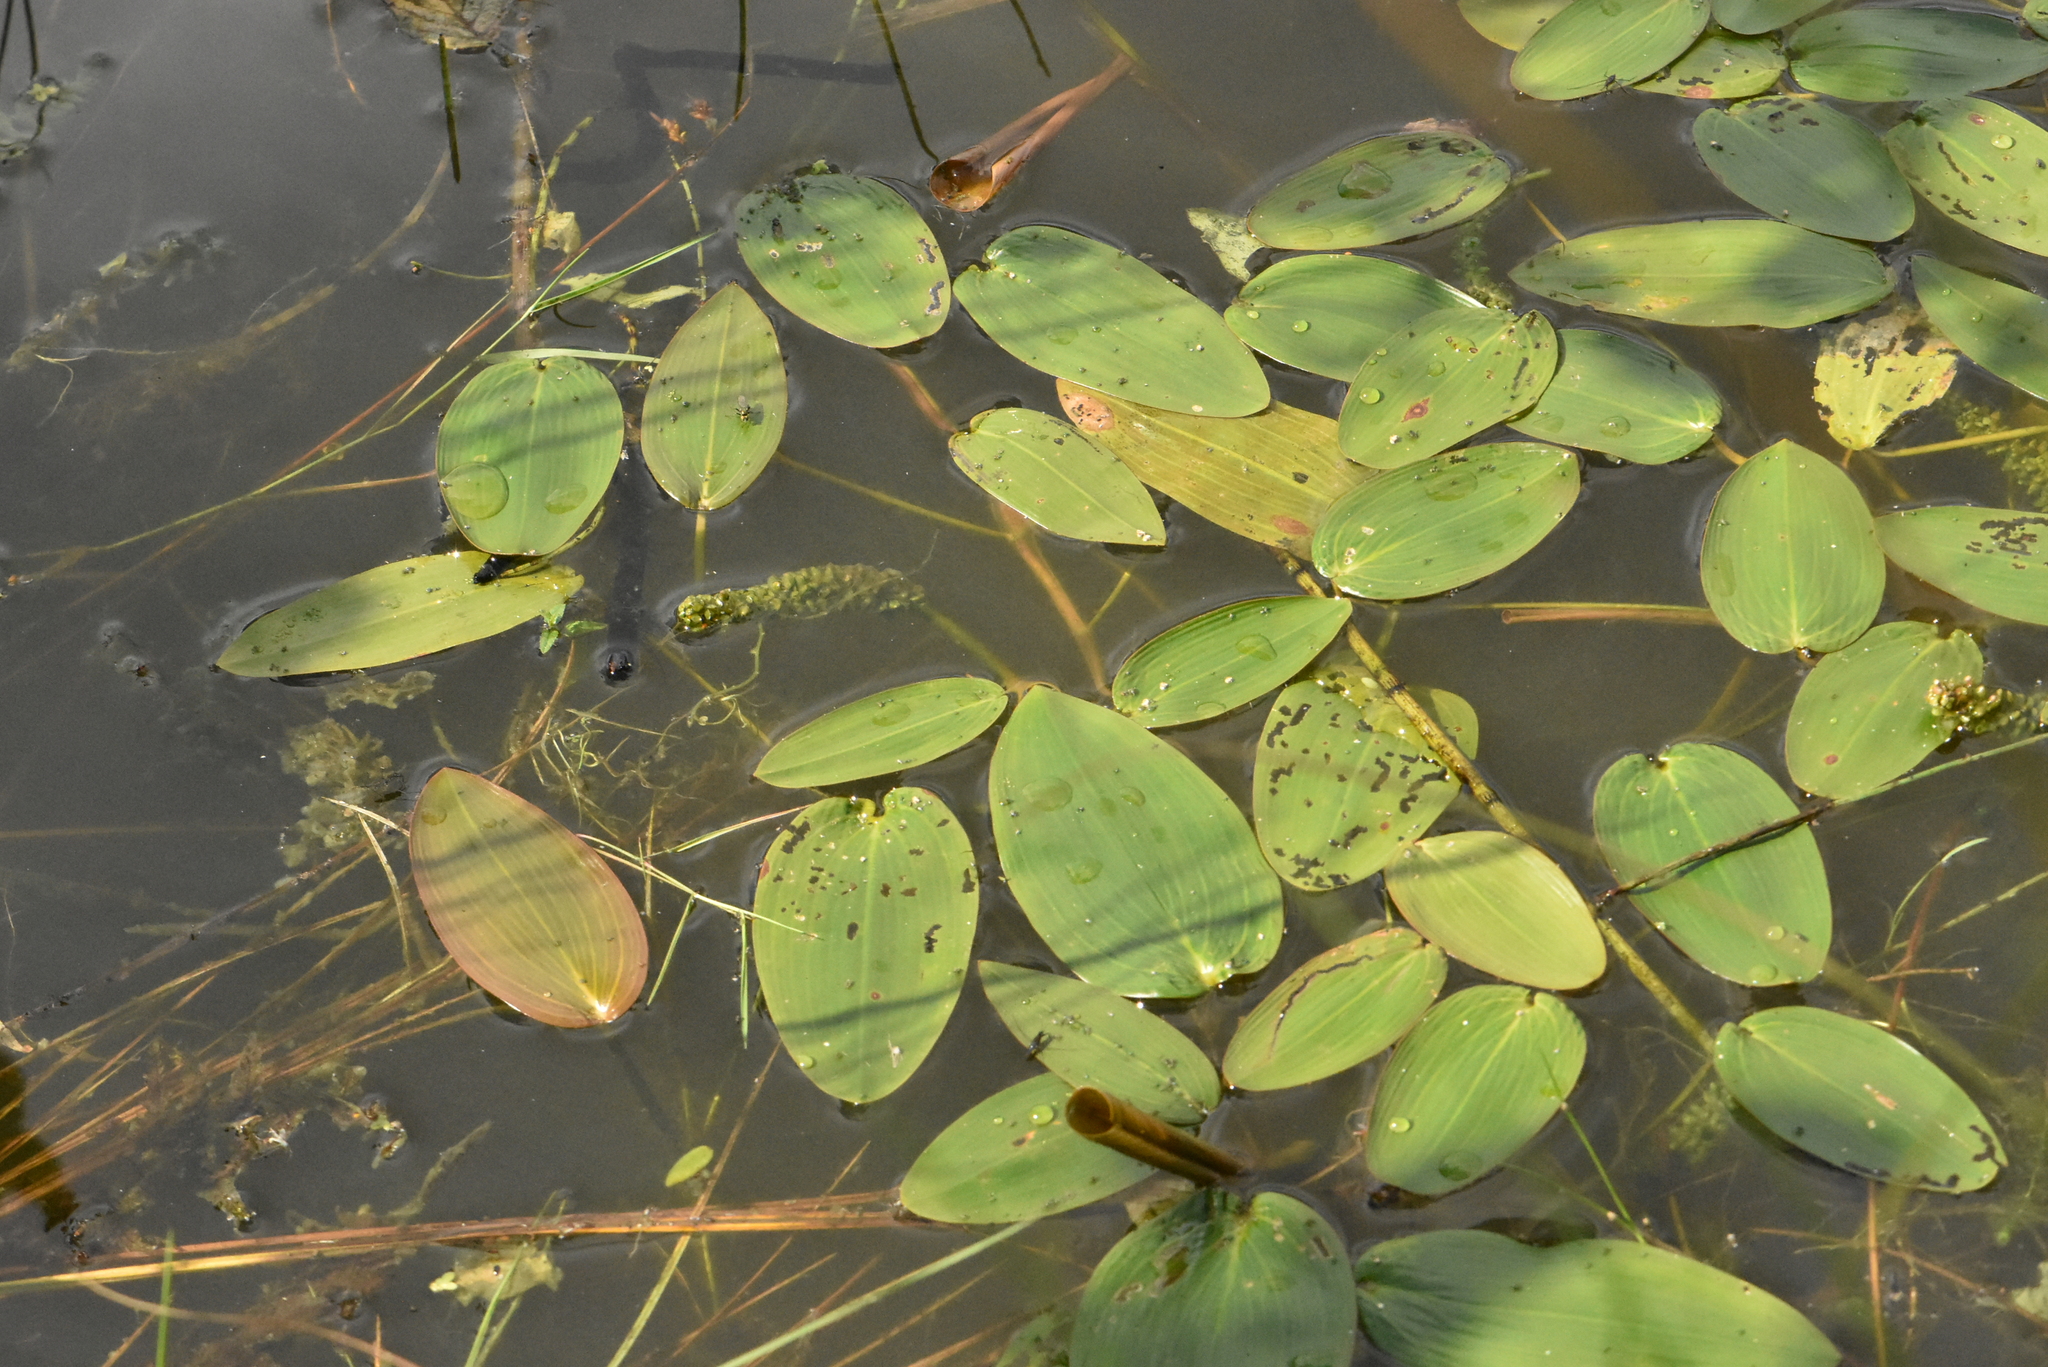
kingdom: Plantae
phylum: Tracheophyta
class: Liliopsida
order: Alismatales
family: Potamogetonaceae
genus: Potamogeton
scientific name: Potamogeton natans
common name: Broad-leaved pondweed
